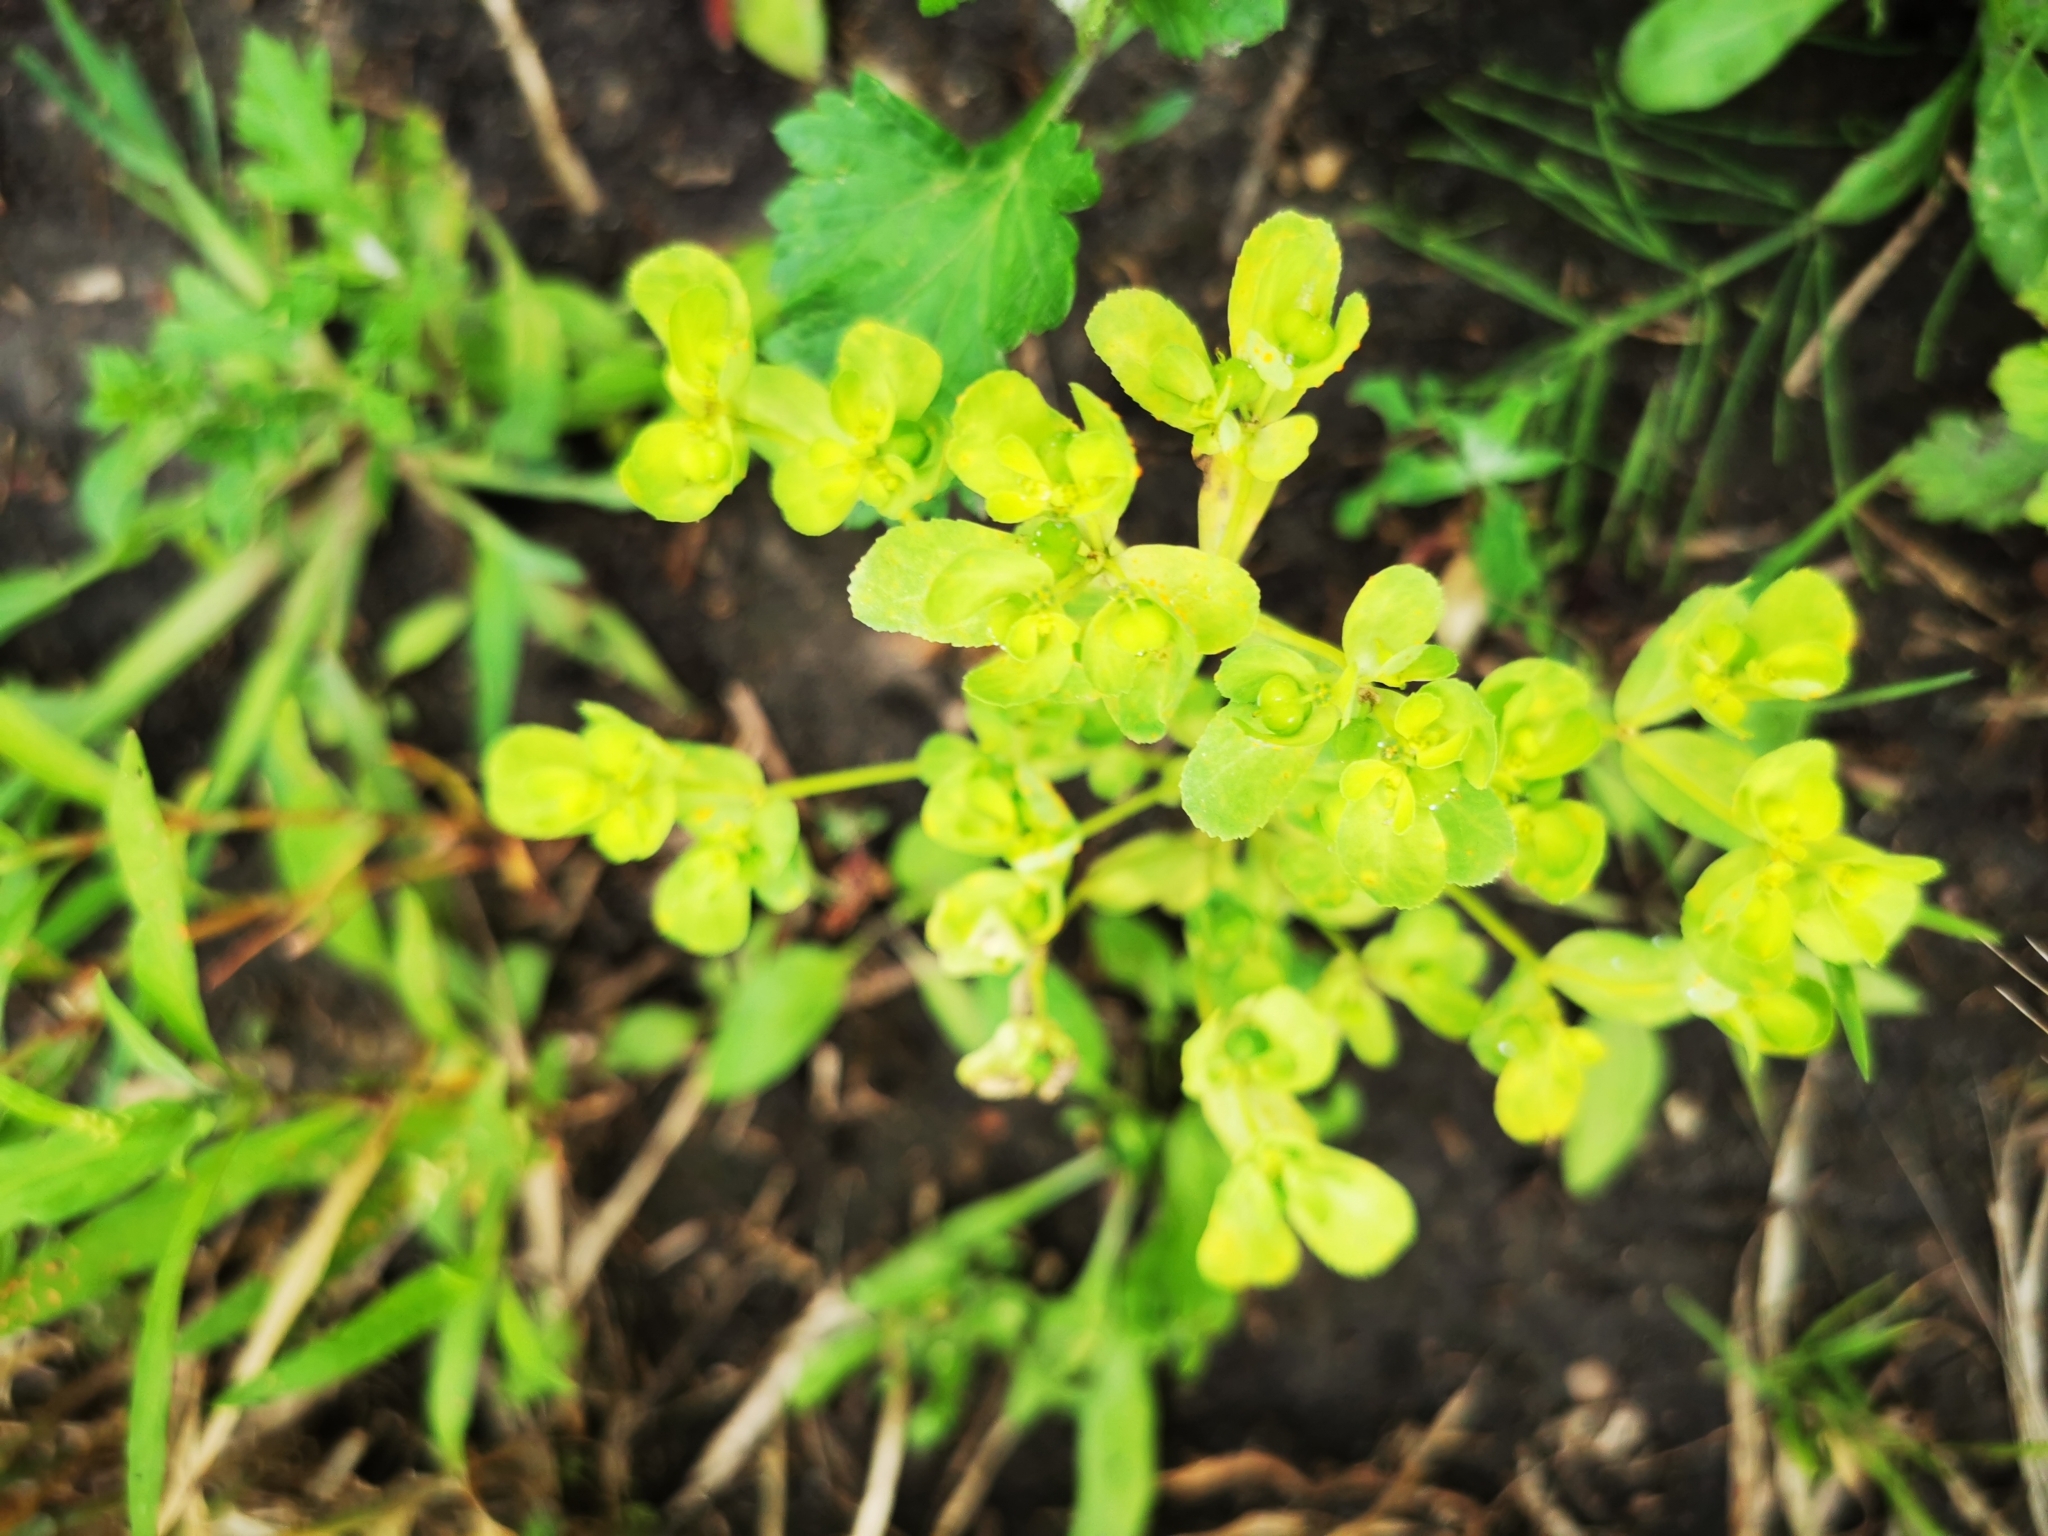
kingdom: Plantae
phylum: Tracheophyta
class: Magnoliopsida
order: Malpighiales
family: Euphorbiaceae
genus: Euphorbia
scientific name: Euphorbia helioscopia
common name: Sun spurge
